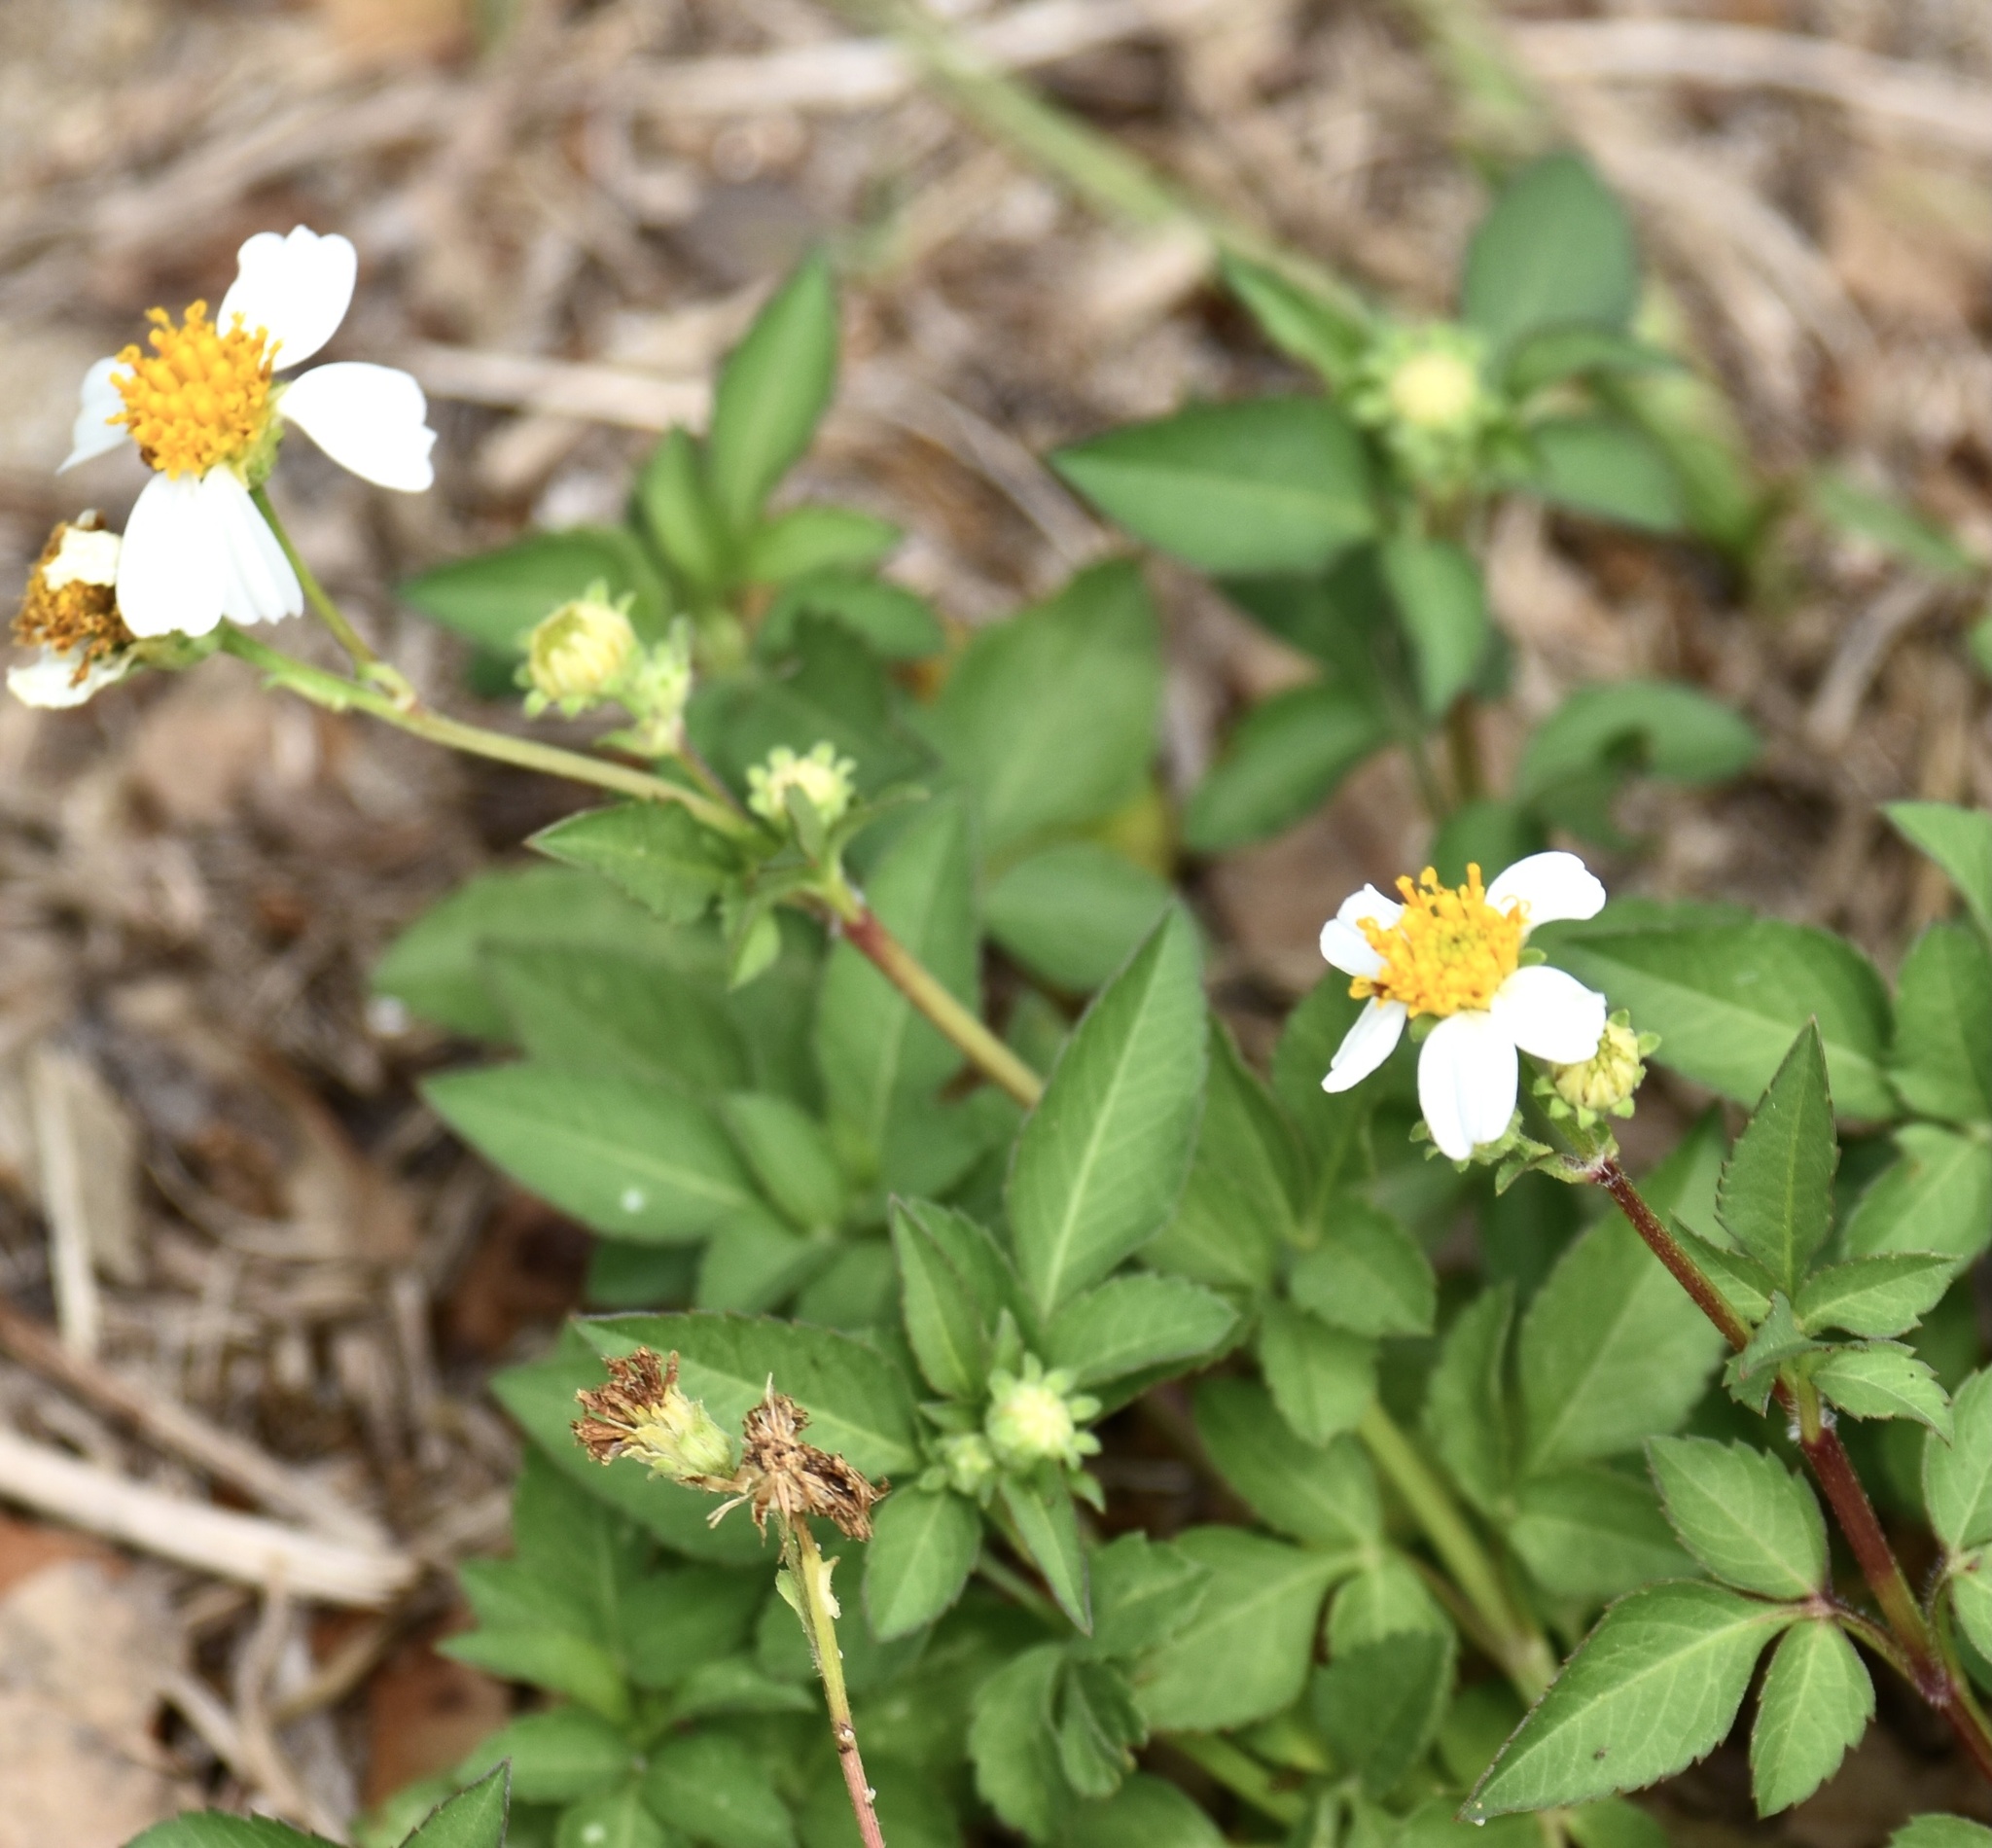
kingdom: Plantae
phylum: Tracheophyta
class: Magnoliopsida
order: Asterales
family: Asteraceae
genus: Bidens
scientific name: Bidens alba
